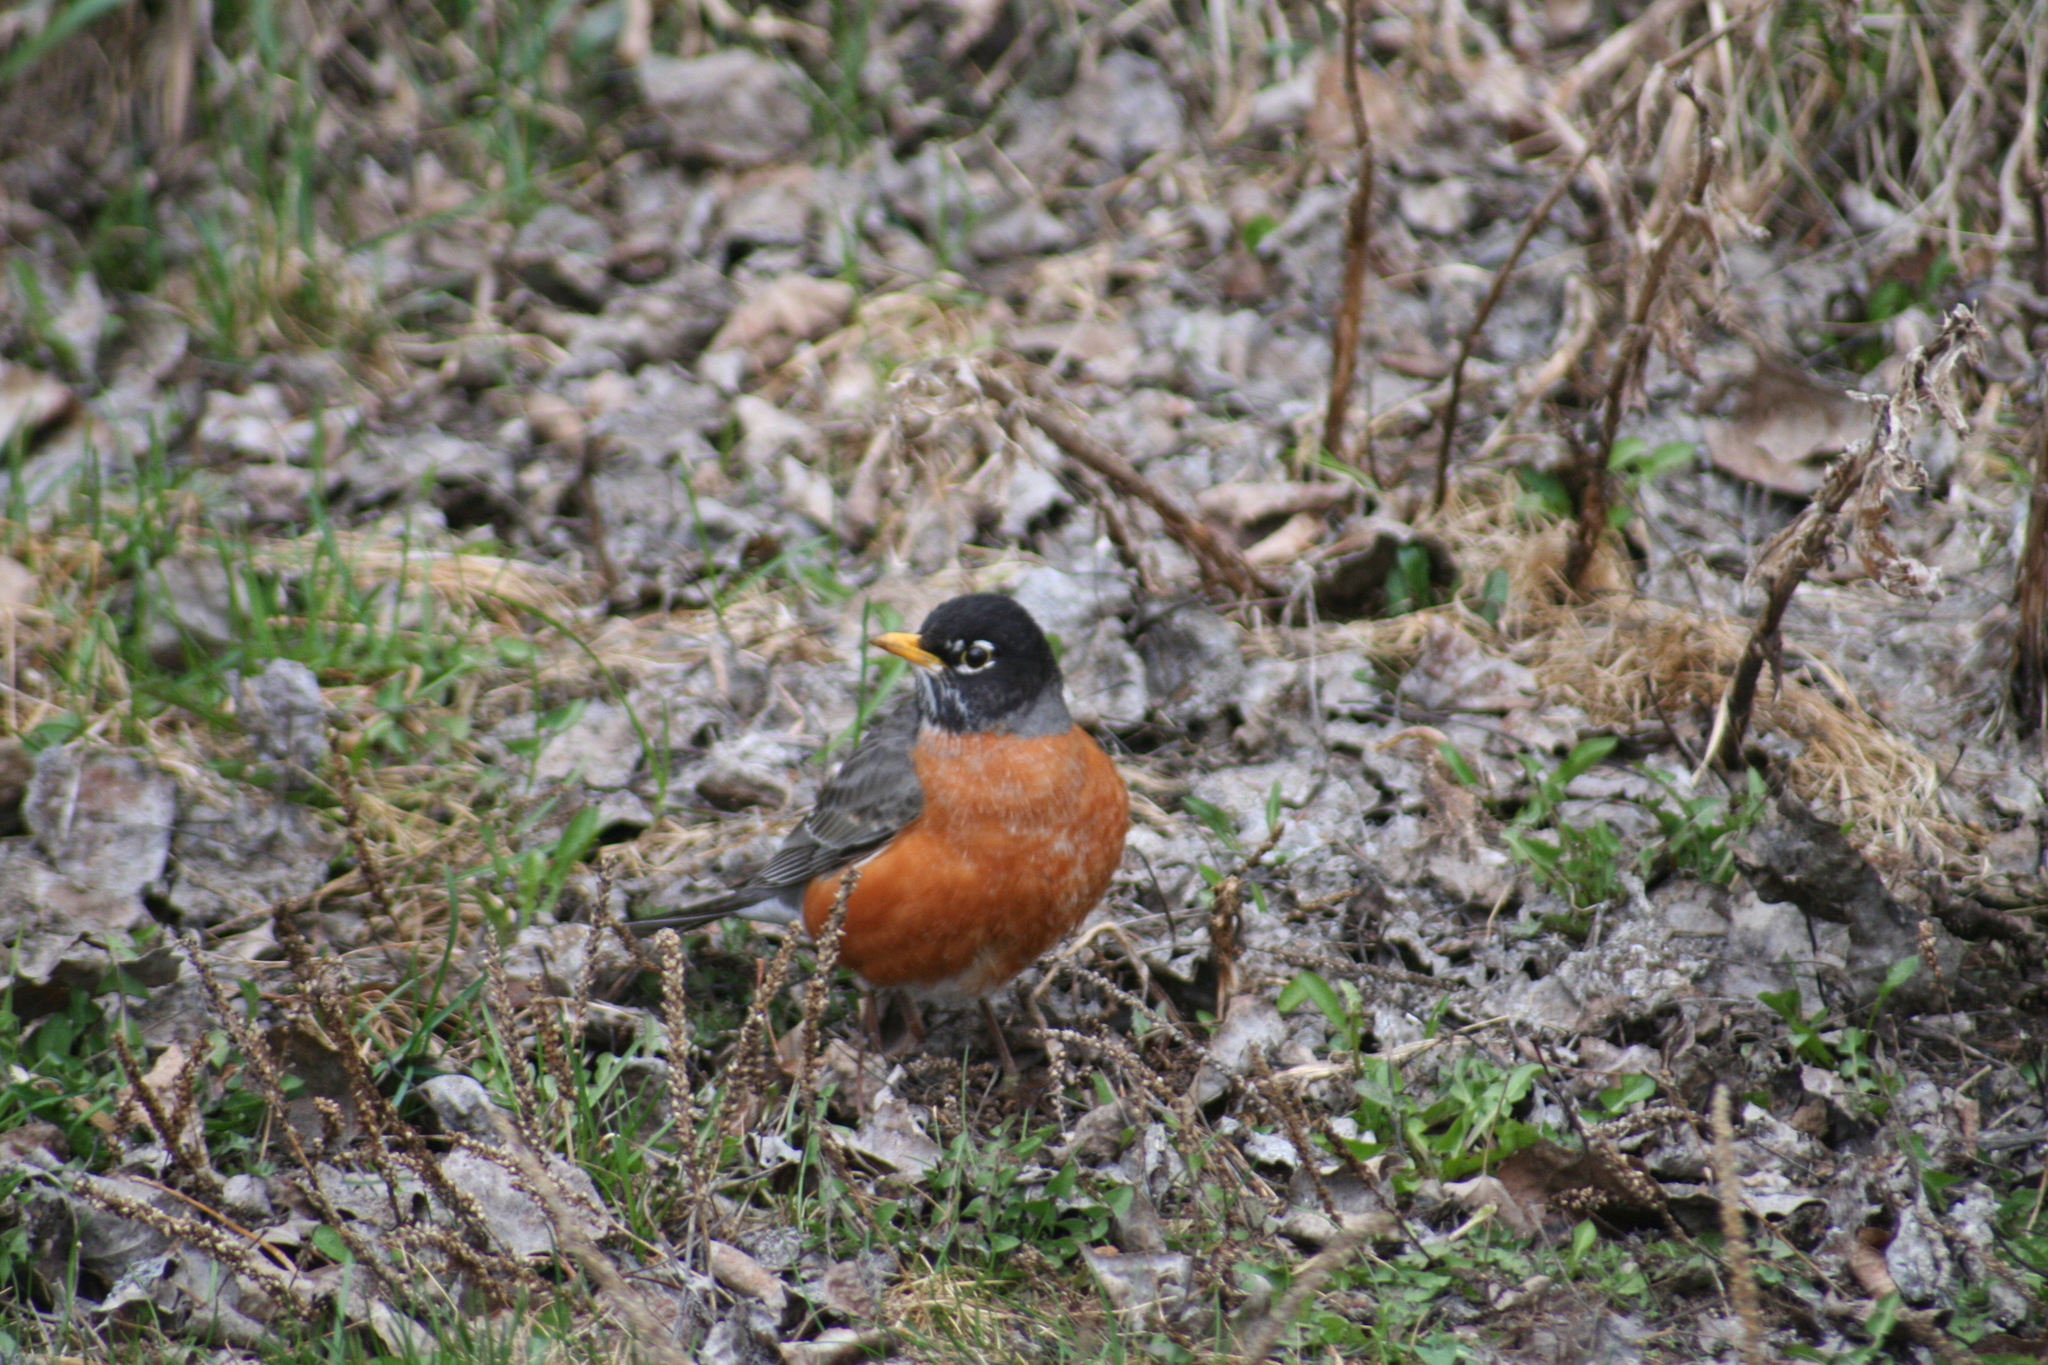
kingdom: Animalia
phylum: Chordata
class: Aves
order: Passeriformes
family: Turdidae
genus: Turdus
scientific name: Turdus migratorius
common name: American robin
